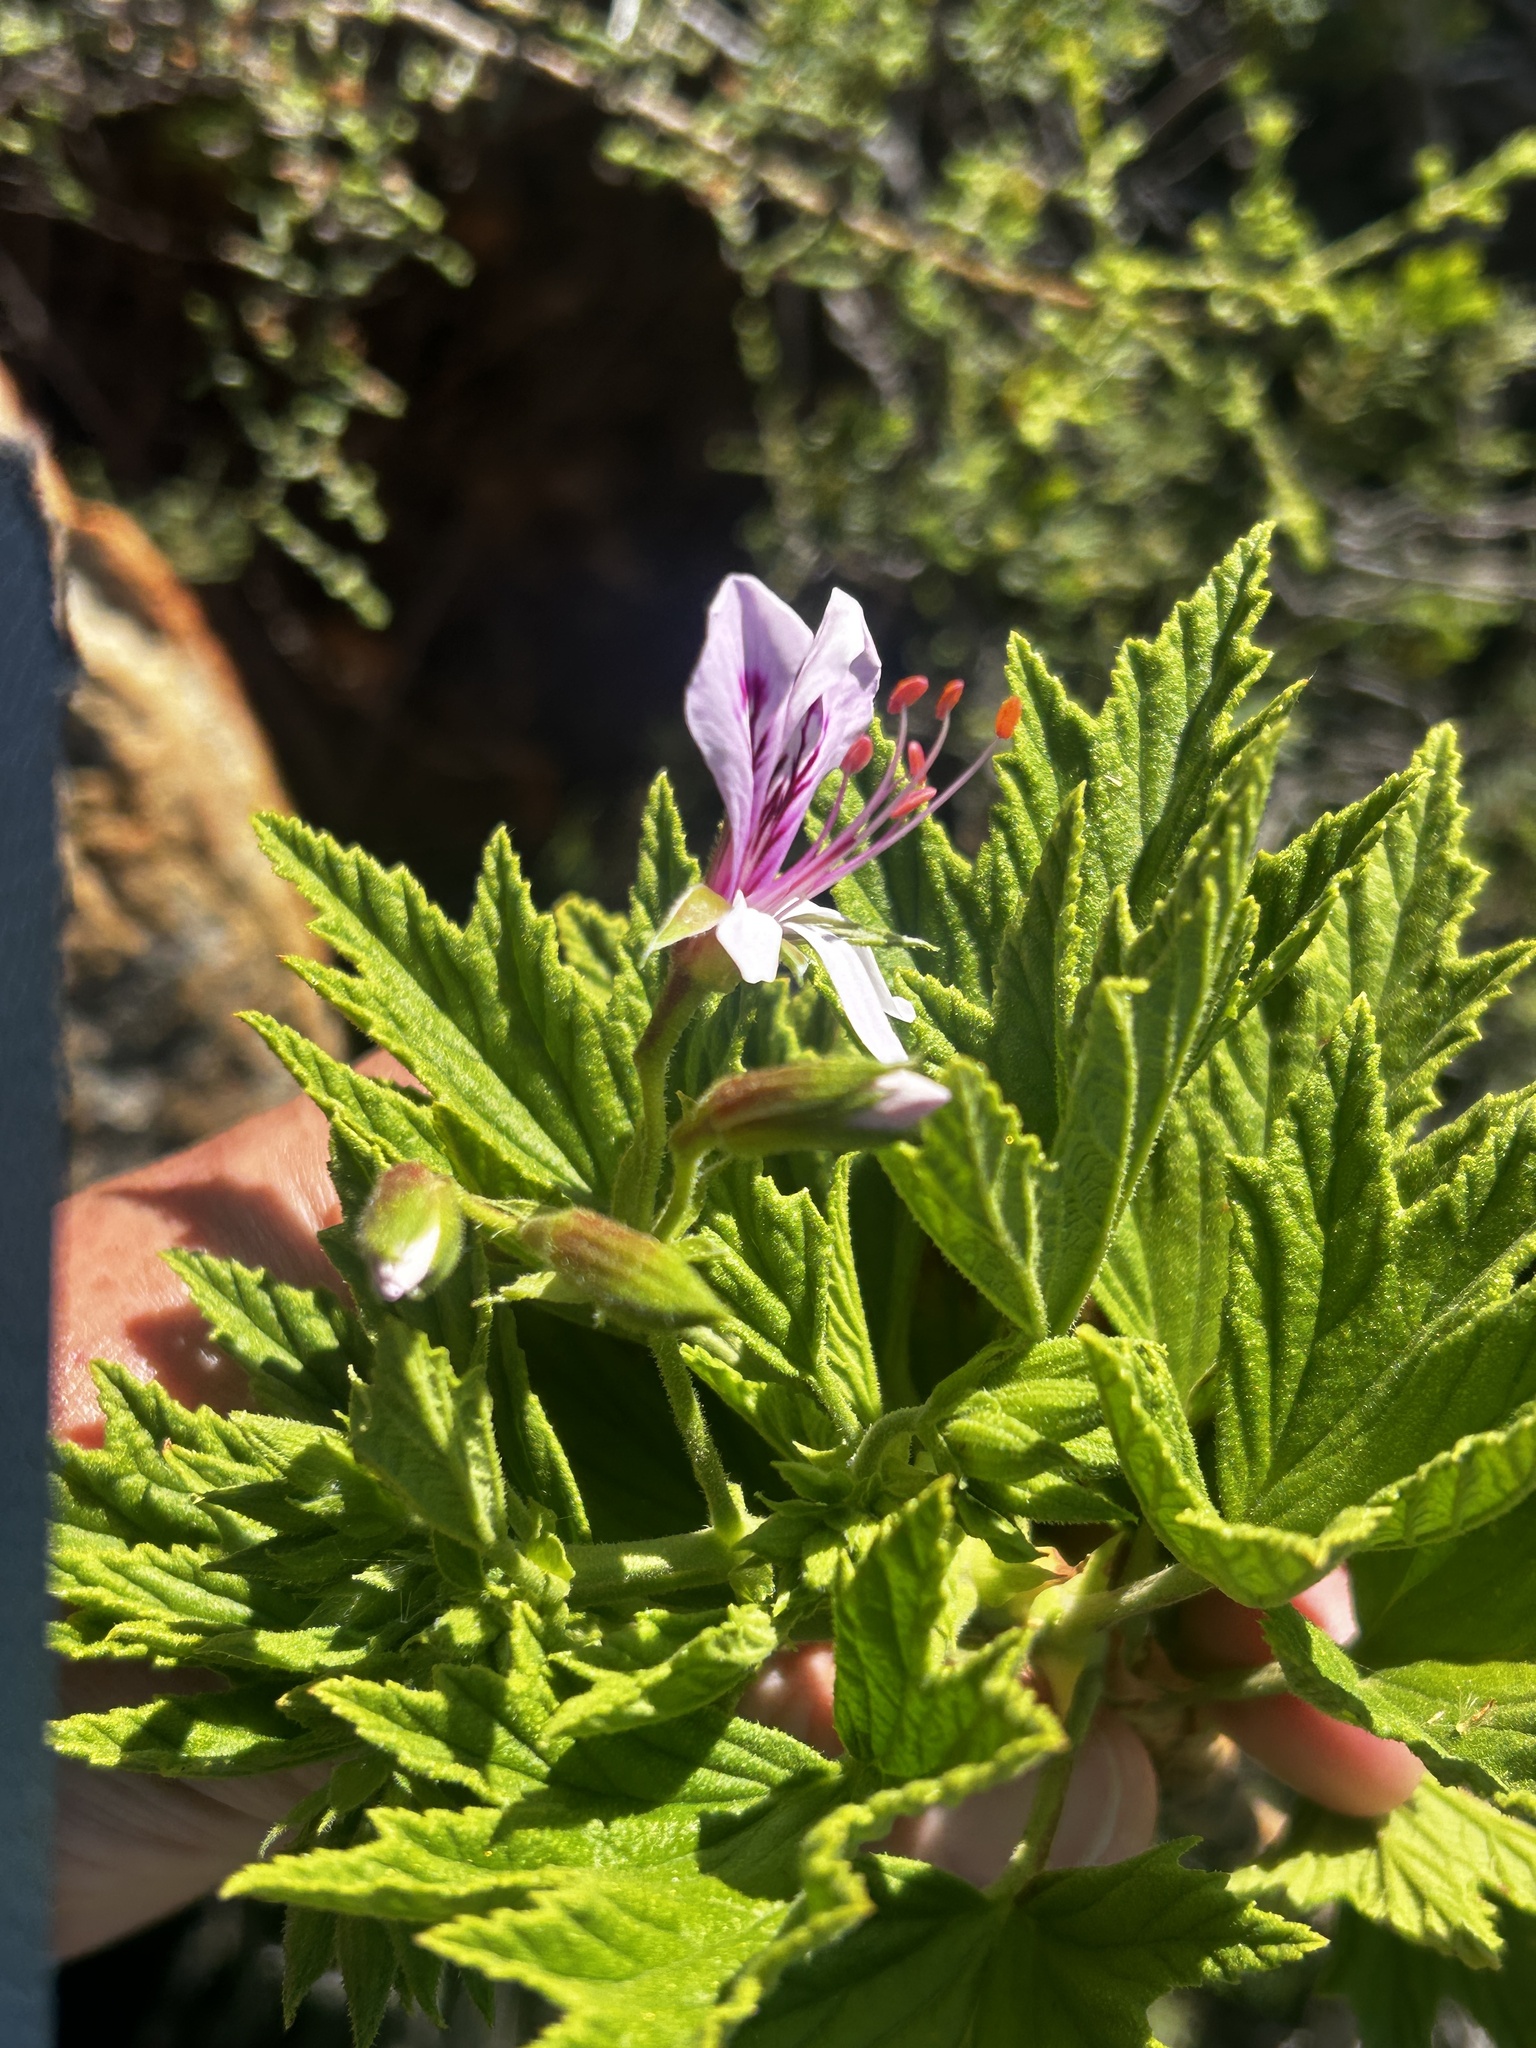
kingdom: Plantae
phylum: Tracheophyta
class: Magnoliopsida
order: Geraniales
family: Geraniaceae
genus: Pelargonium
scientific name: Pelargonium citronellum
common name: Lemon-scent pelargonium
